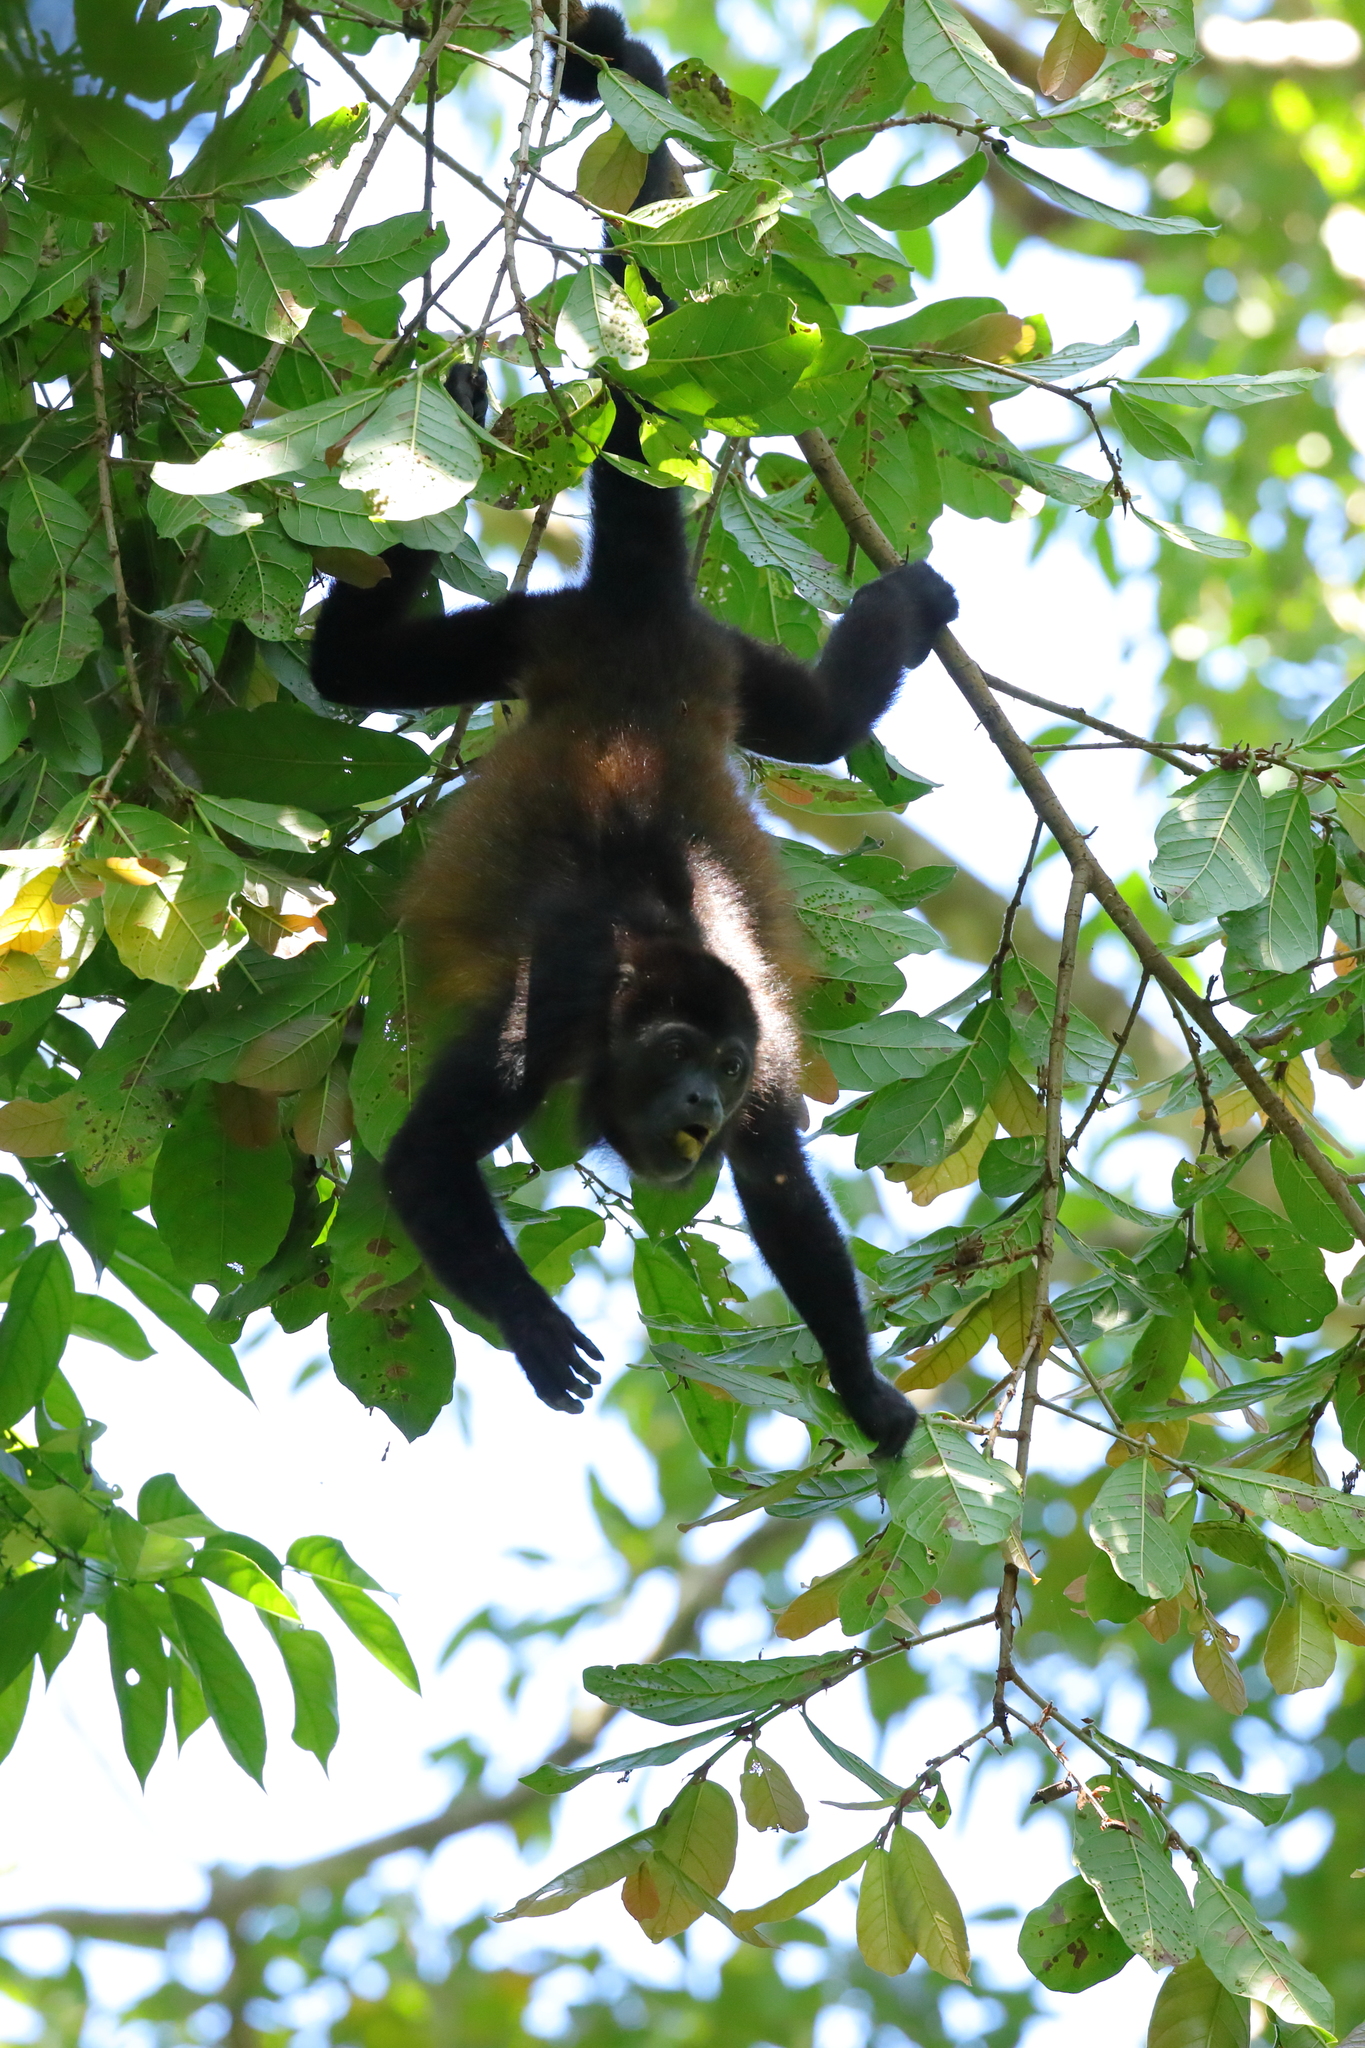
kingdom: Animalia
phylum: Chordata
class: Mammalia
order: Primates
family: Atelidae
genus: Alouatta
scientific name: Alouatta palliata
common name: Mantled howler
